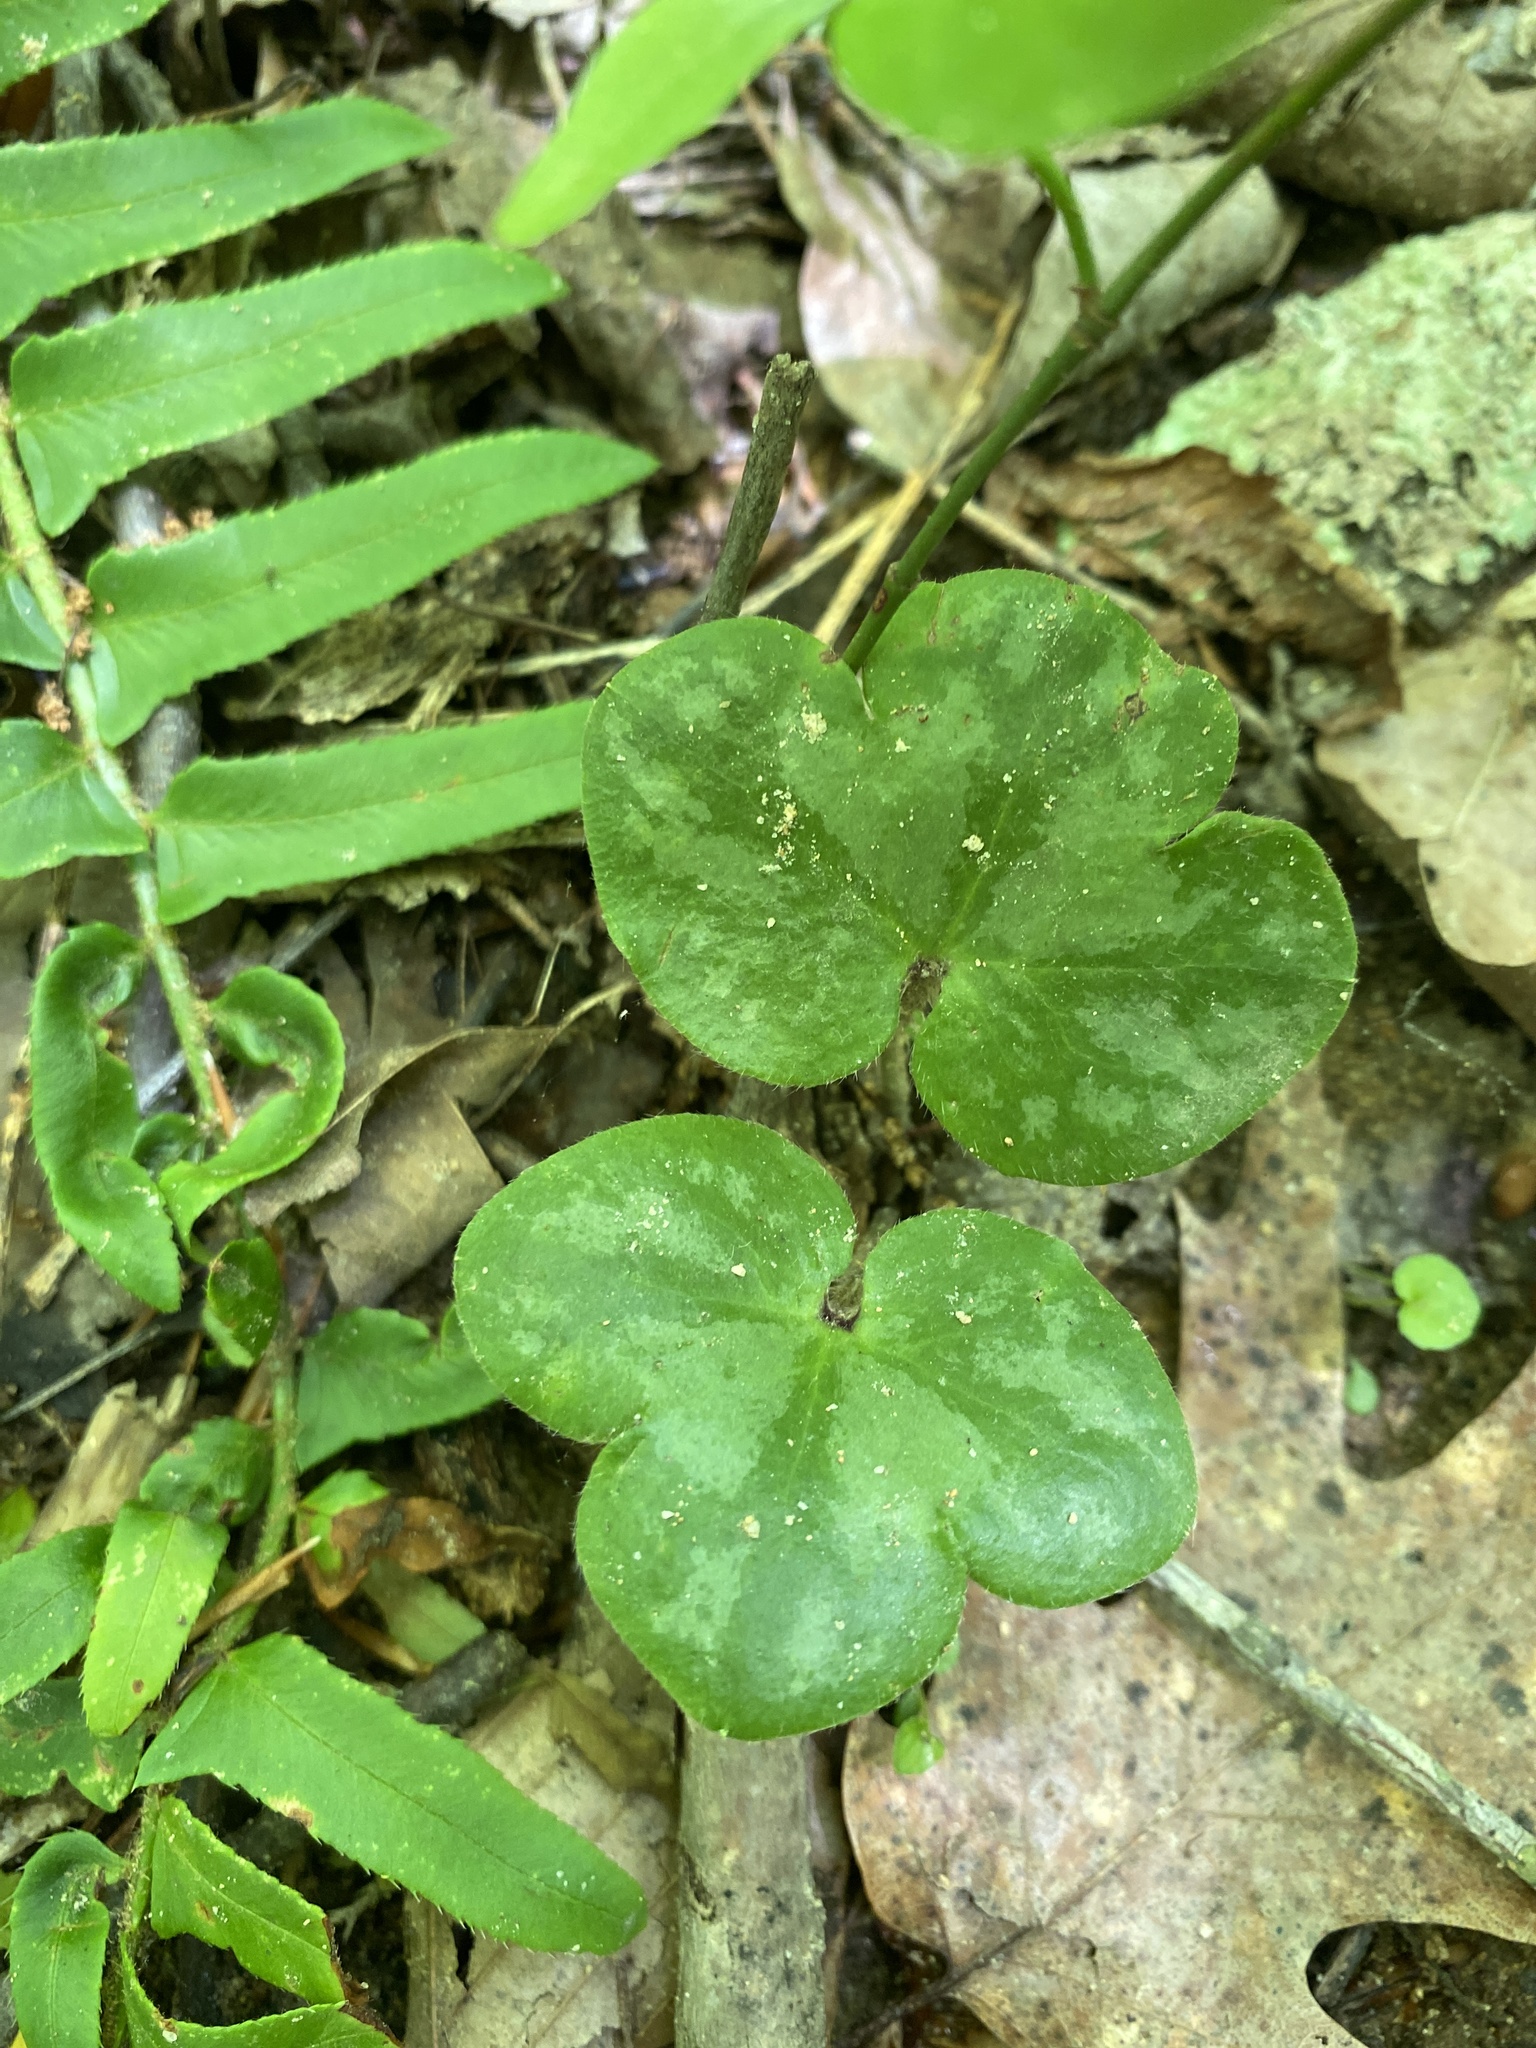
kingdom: Plantae
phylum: Tracheophyta
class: Magnoliopsida
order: Ranunculales
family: Ranunculaceae
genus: Hepatica
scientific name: Hepatica americana
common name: American hepatica
